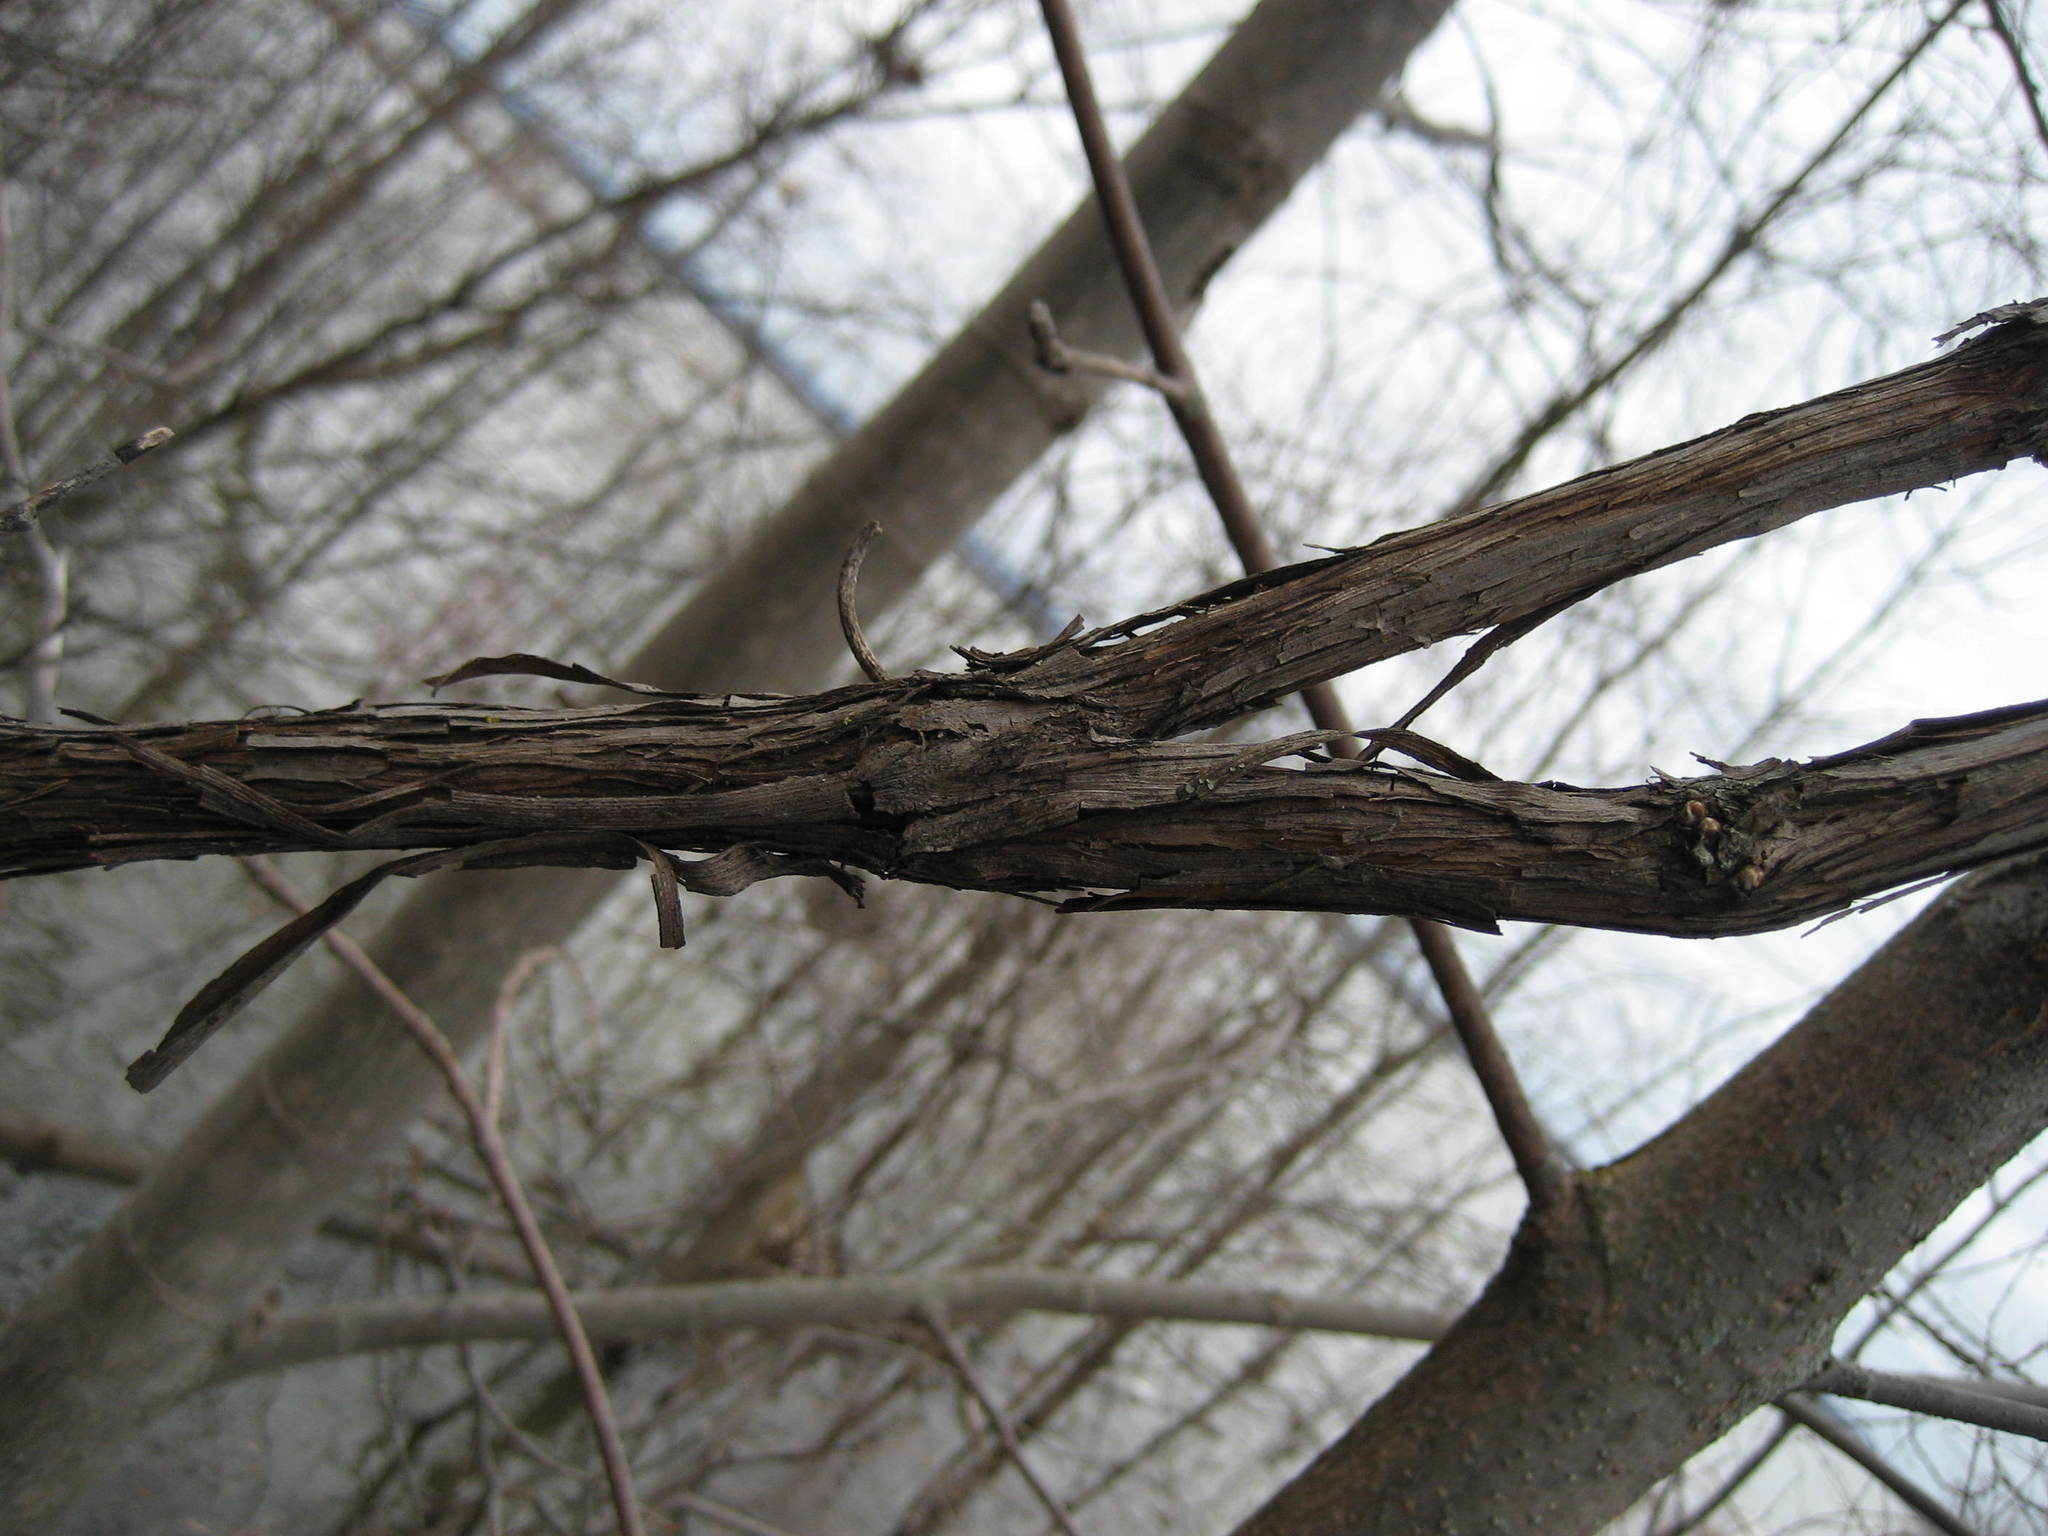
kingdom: Plantae
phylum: Tracheophyta
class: Magnoliopsida
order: Vitales
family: Vitaceae
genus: Vitis
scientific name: Vitis riparia
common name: Frost grape
